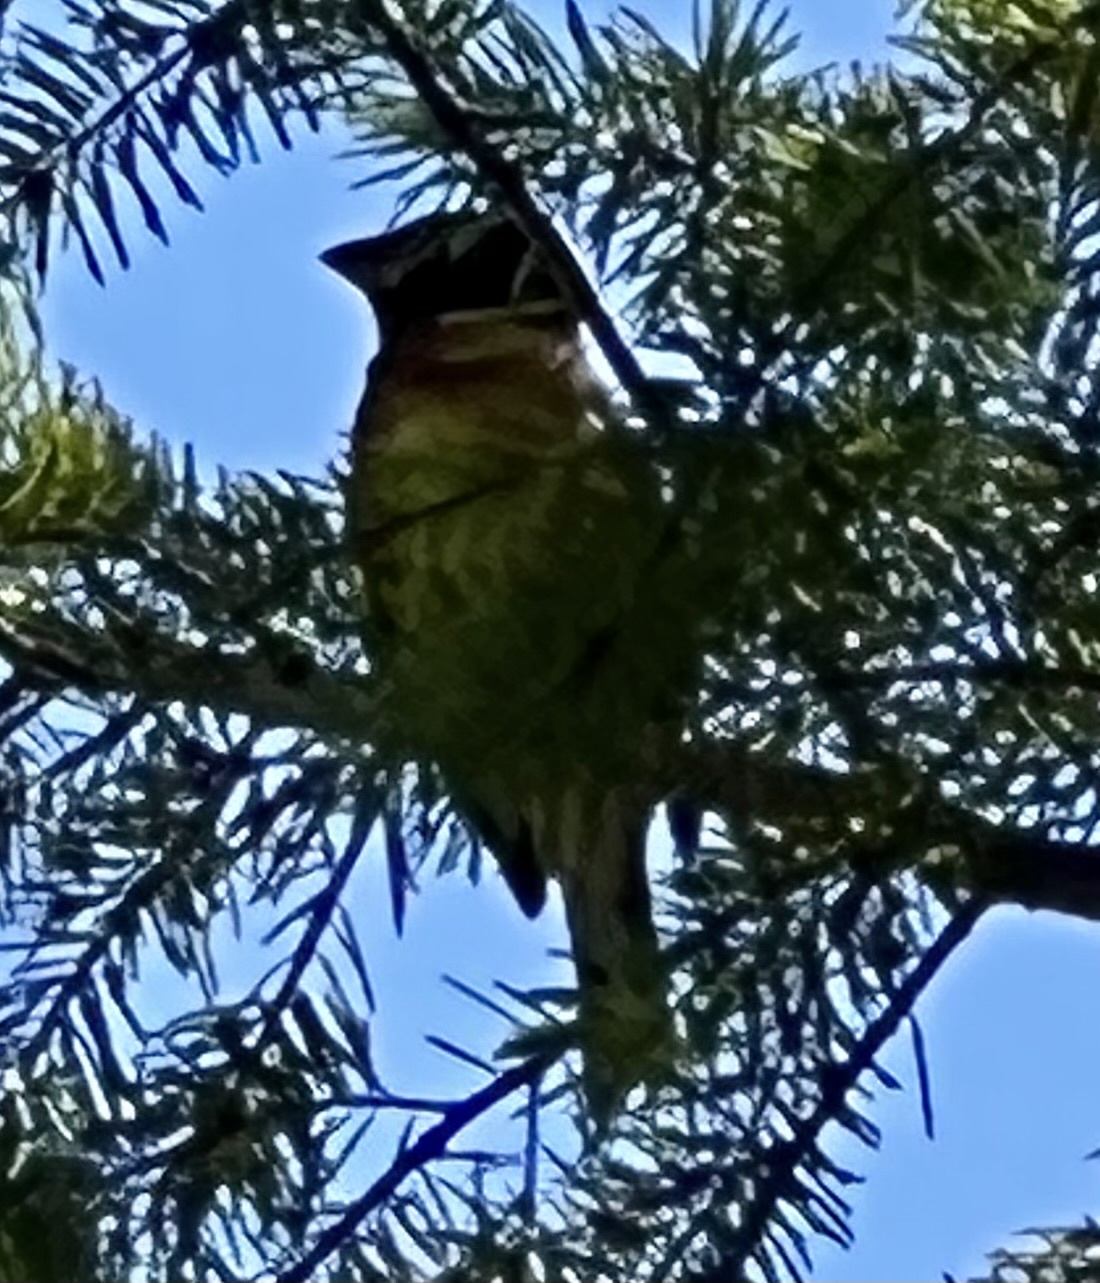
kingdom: Animalia
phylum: Chordata
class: Aves
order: Passeriformes
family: Cardinalidae
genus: Pheucticus
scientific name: Pheucticus melanocephalus
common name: Black-headed grosbeak
